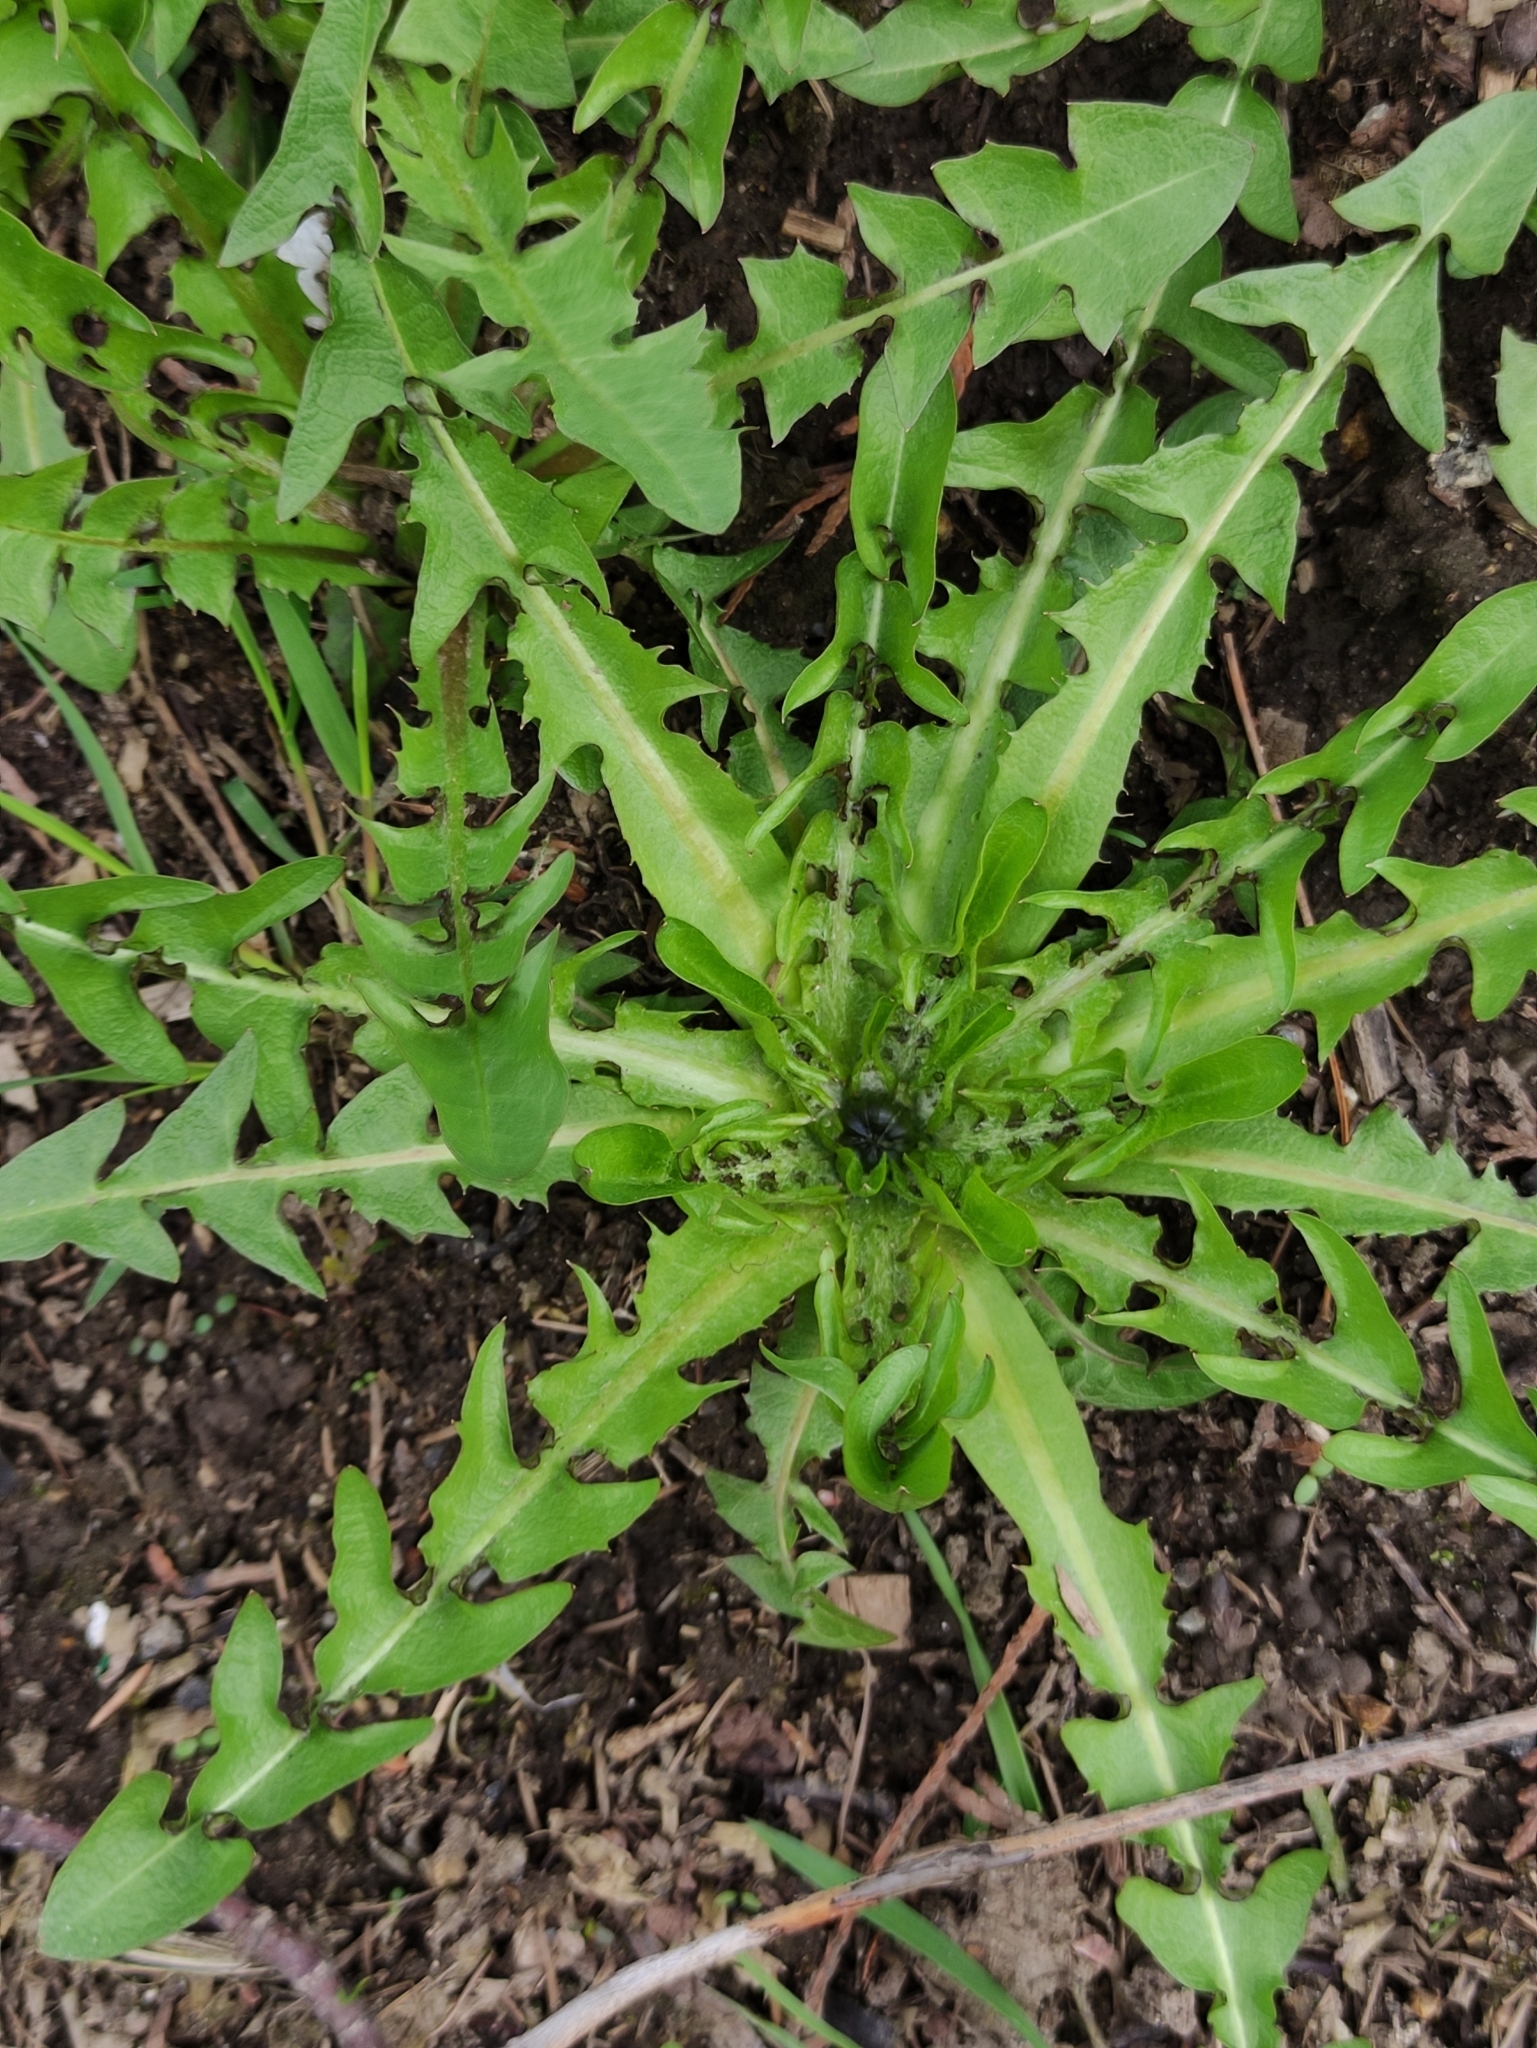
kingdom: Plantae
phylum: Tracheophyta
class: Magnoliopsida
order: Asterales
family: Asteraceae
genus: Taraxacum
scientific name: Taraxacum officinale
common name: Common dandelion
